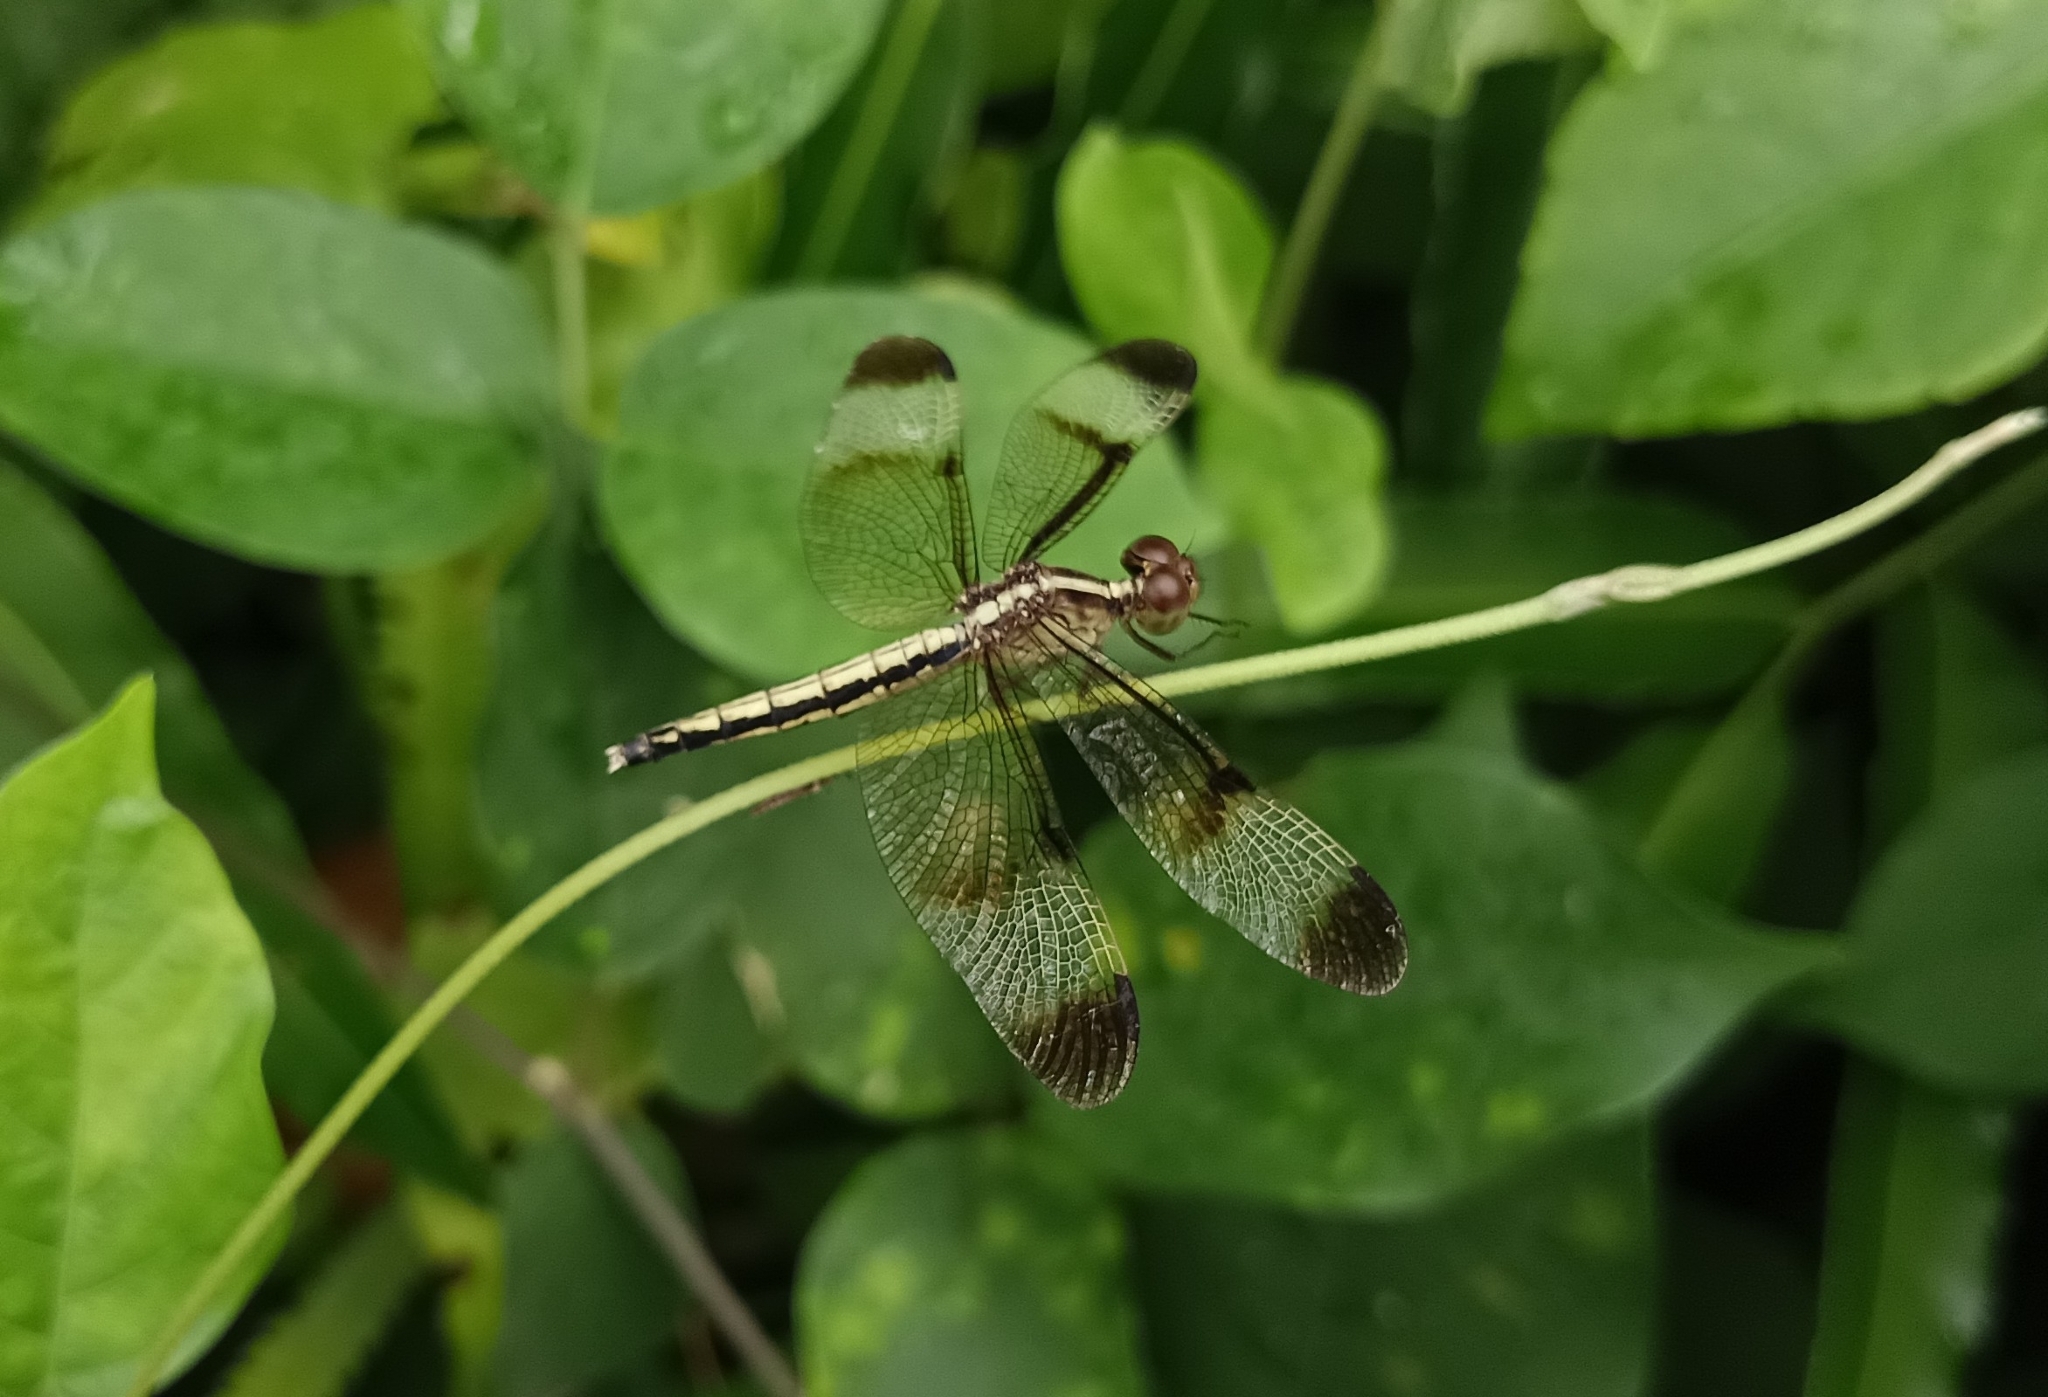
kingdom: Animalia
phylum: Arthropoda
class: Insecta
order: Odonata
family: Libellulidae
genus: Neurothemis
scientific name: Neurothemis tullia
